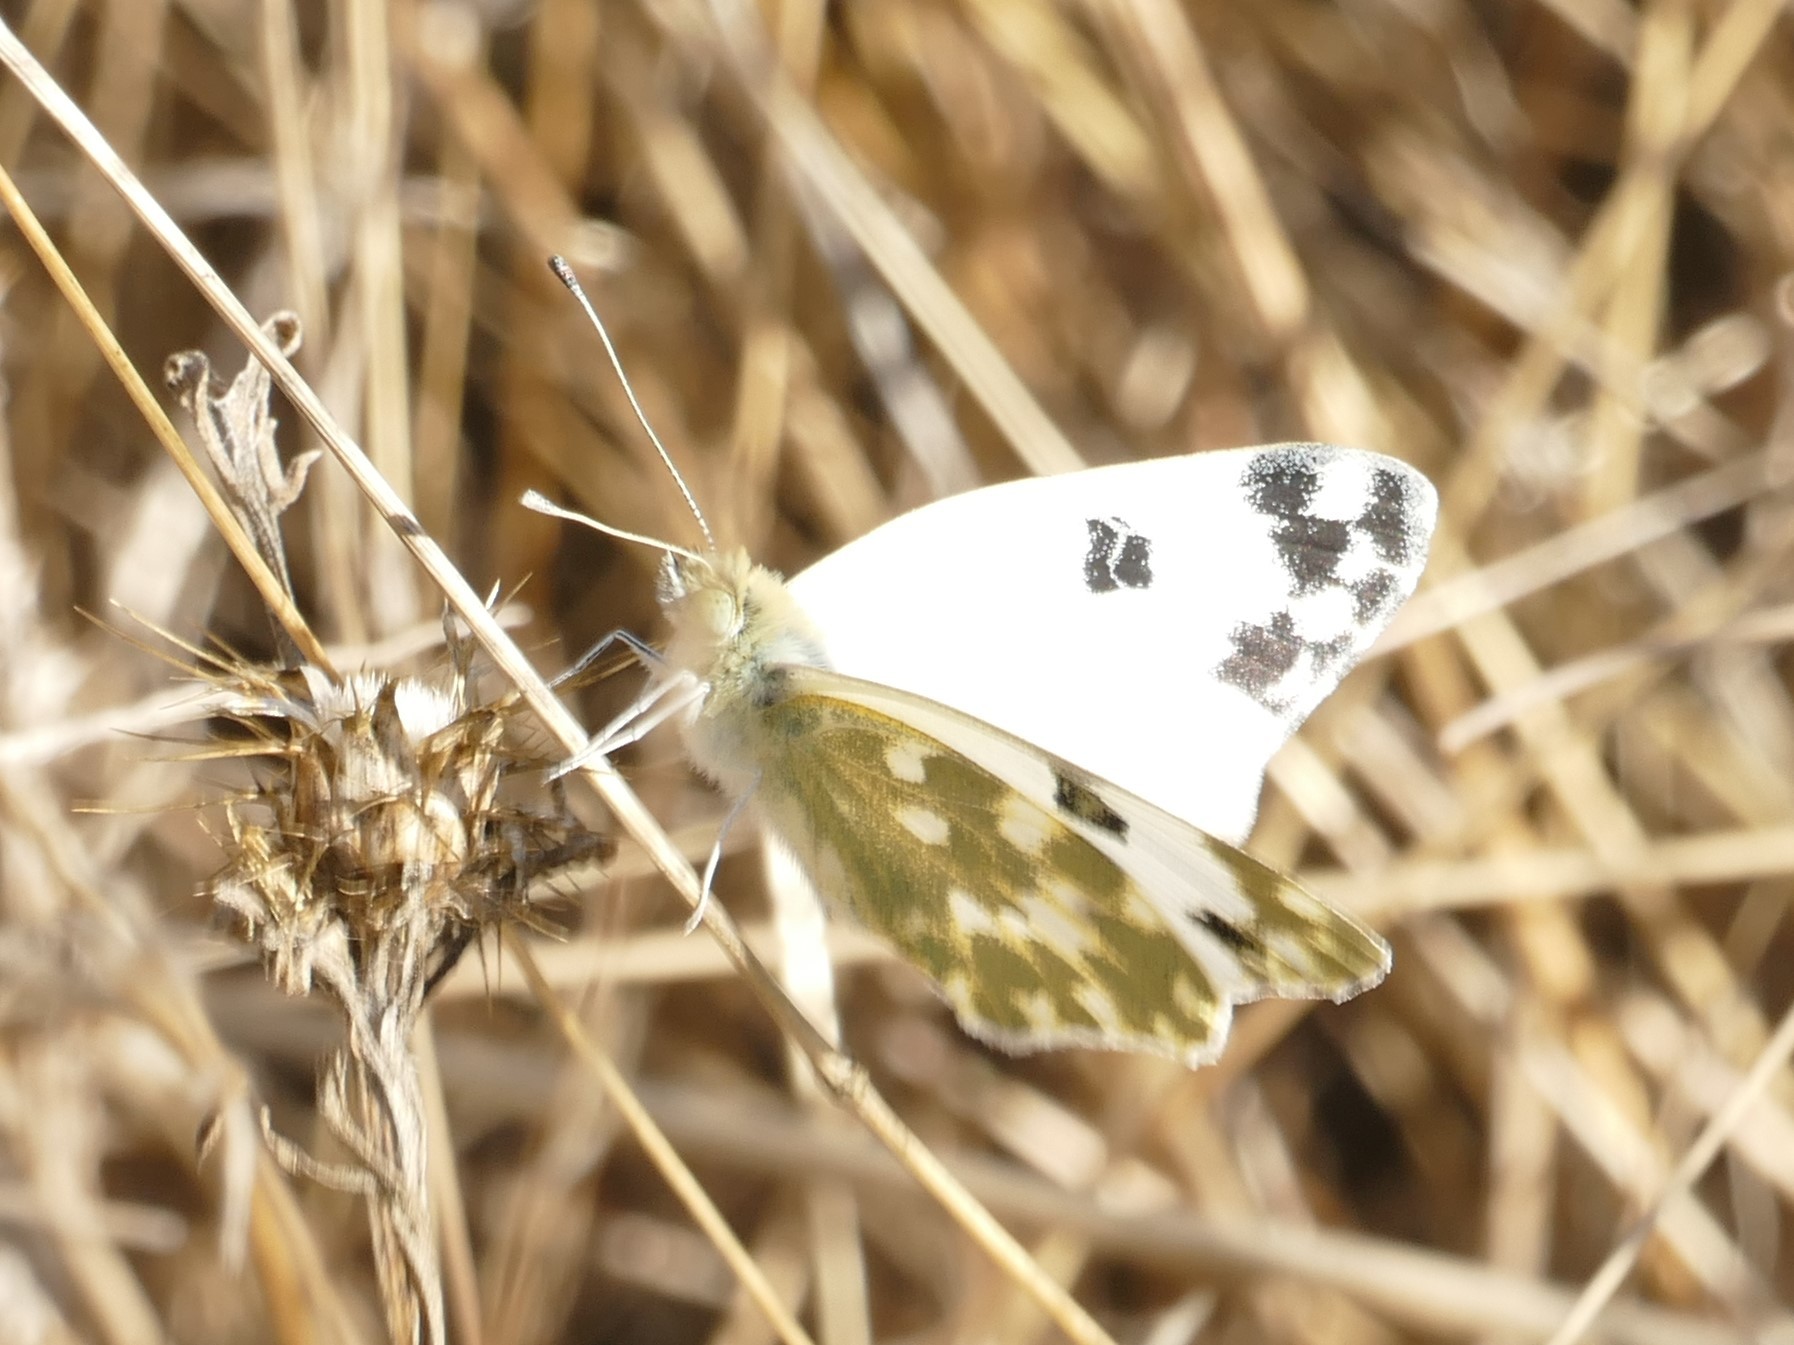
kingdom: Animalia
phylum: Arthropoda
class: Insecta
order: Lepidoptera
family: Pieridae
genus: Pontia
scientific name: Pontia daplidice
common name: Bath white
